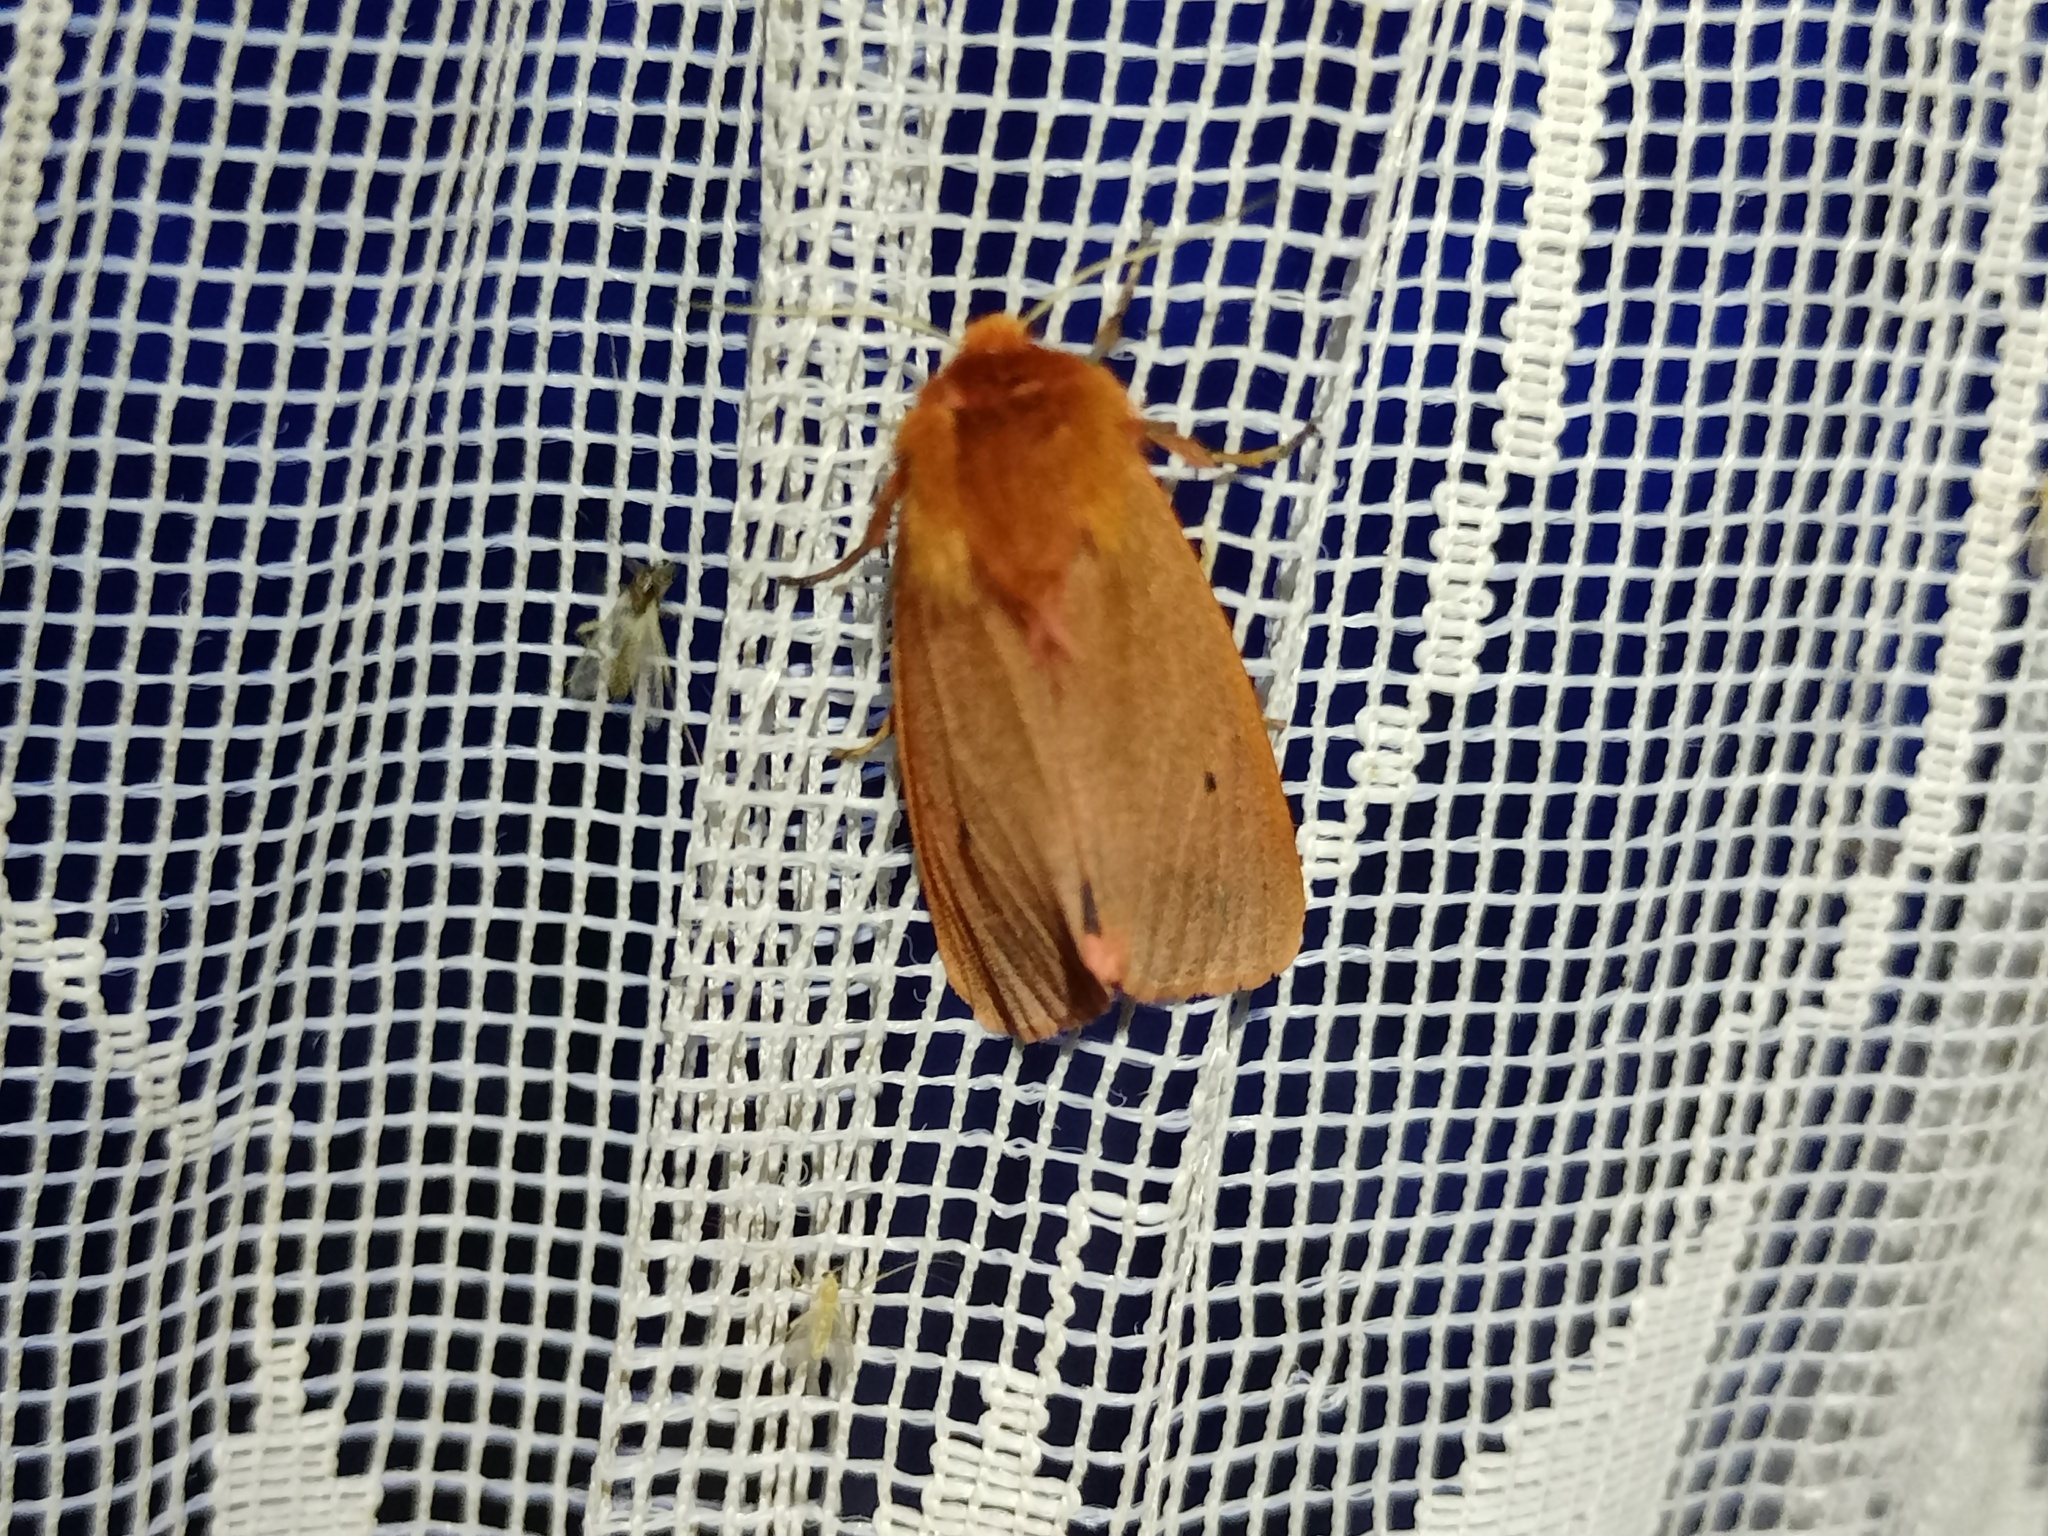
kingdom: Animalia
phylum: Arthropoda
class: Insecta
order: Lepidoptera
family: Erebidae
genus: Phragmatobia
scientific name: Phragmatobia fuliginosa
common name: Ruby tiger
